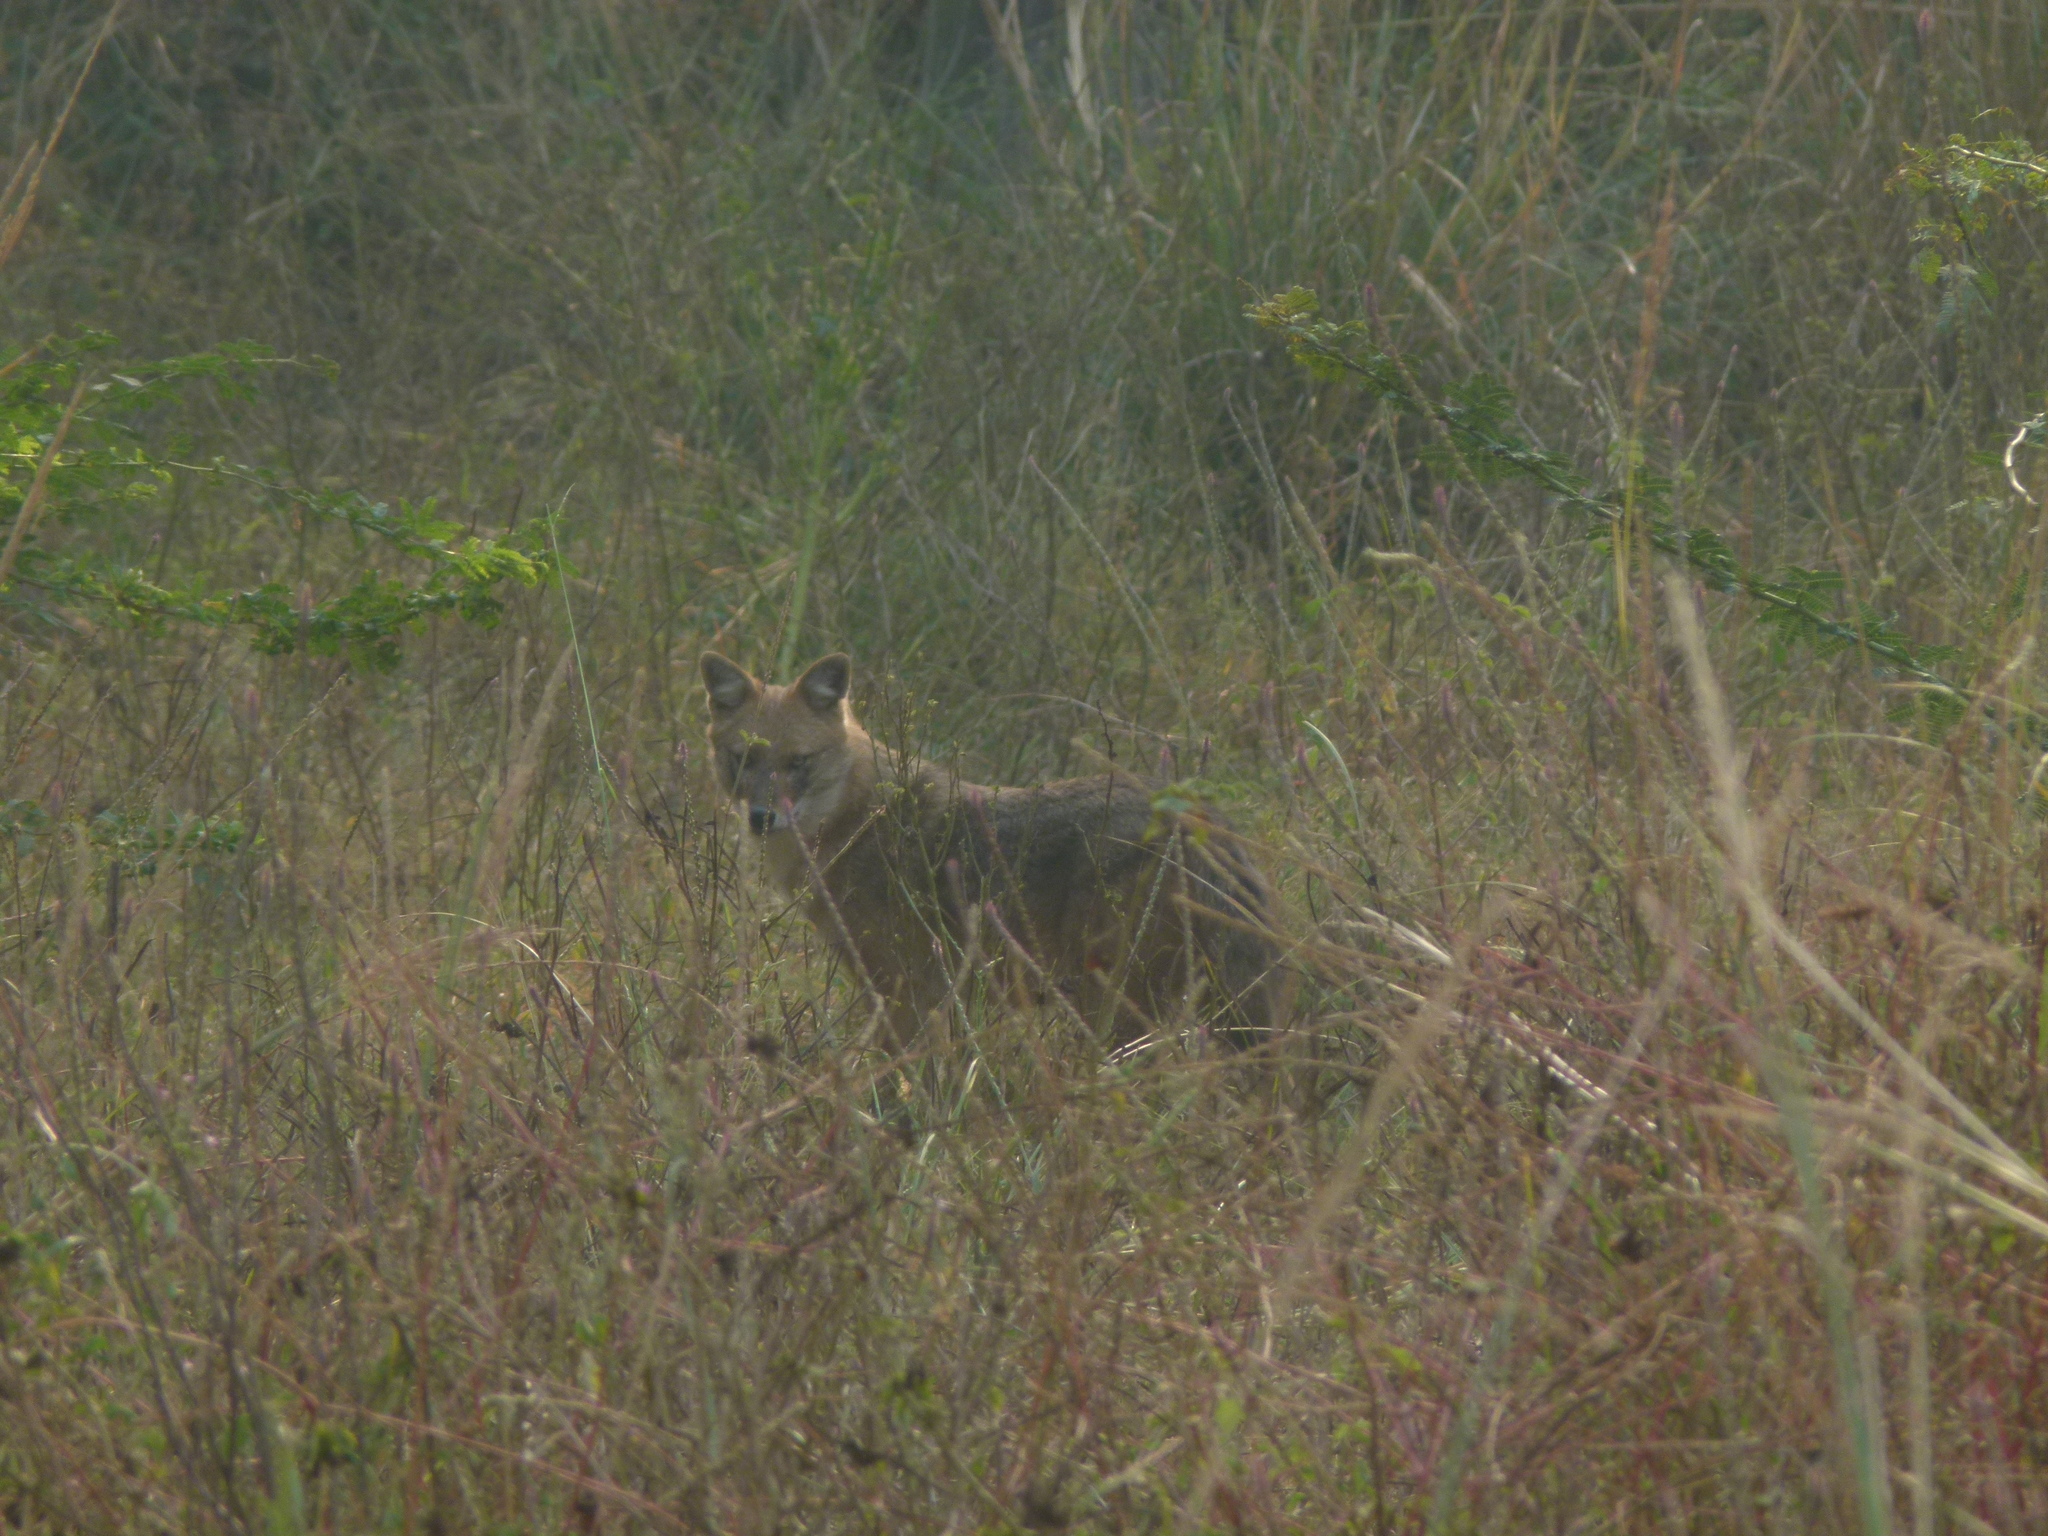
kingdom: Animalia
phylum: Chordata
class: Mammalia
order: Carnivora
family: Canidae
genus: Canis
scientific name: Canis aureus
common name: Golden jackal
